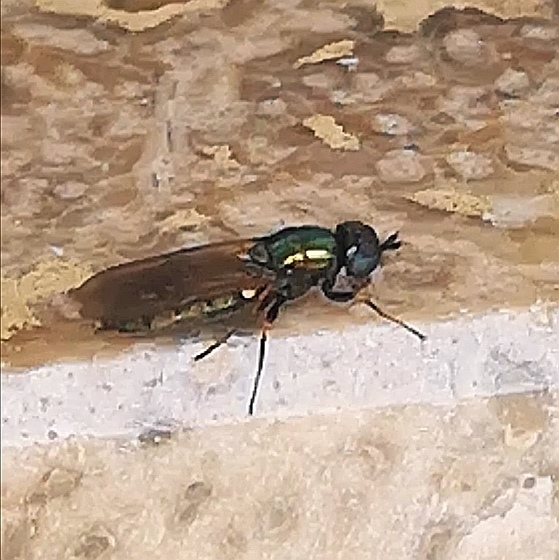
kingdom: Animalia
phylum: Arthropoda
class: Insecta
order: Diptera
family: Stratiomyidae
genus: Chloromyia
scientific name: Chloromyia formosa
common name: Soldier fly
